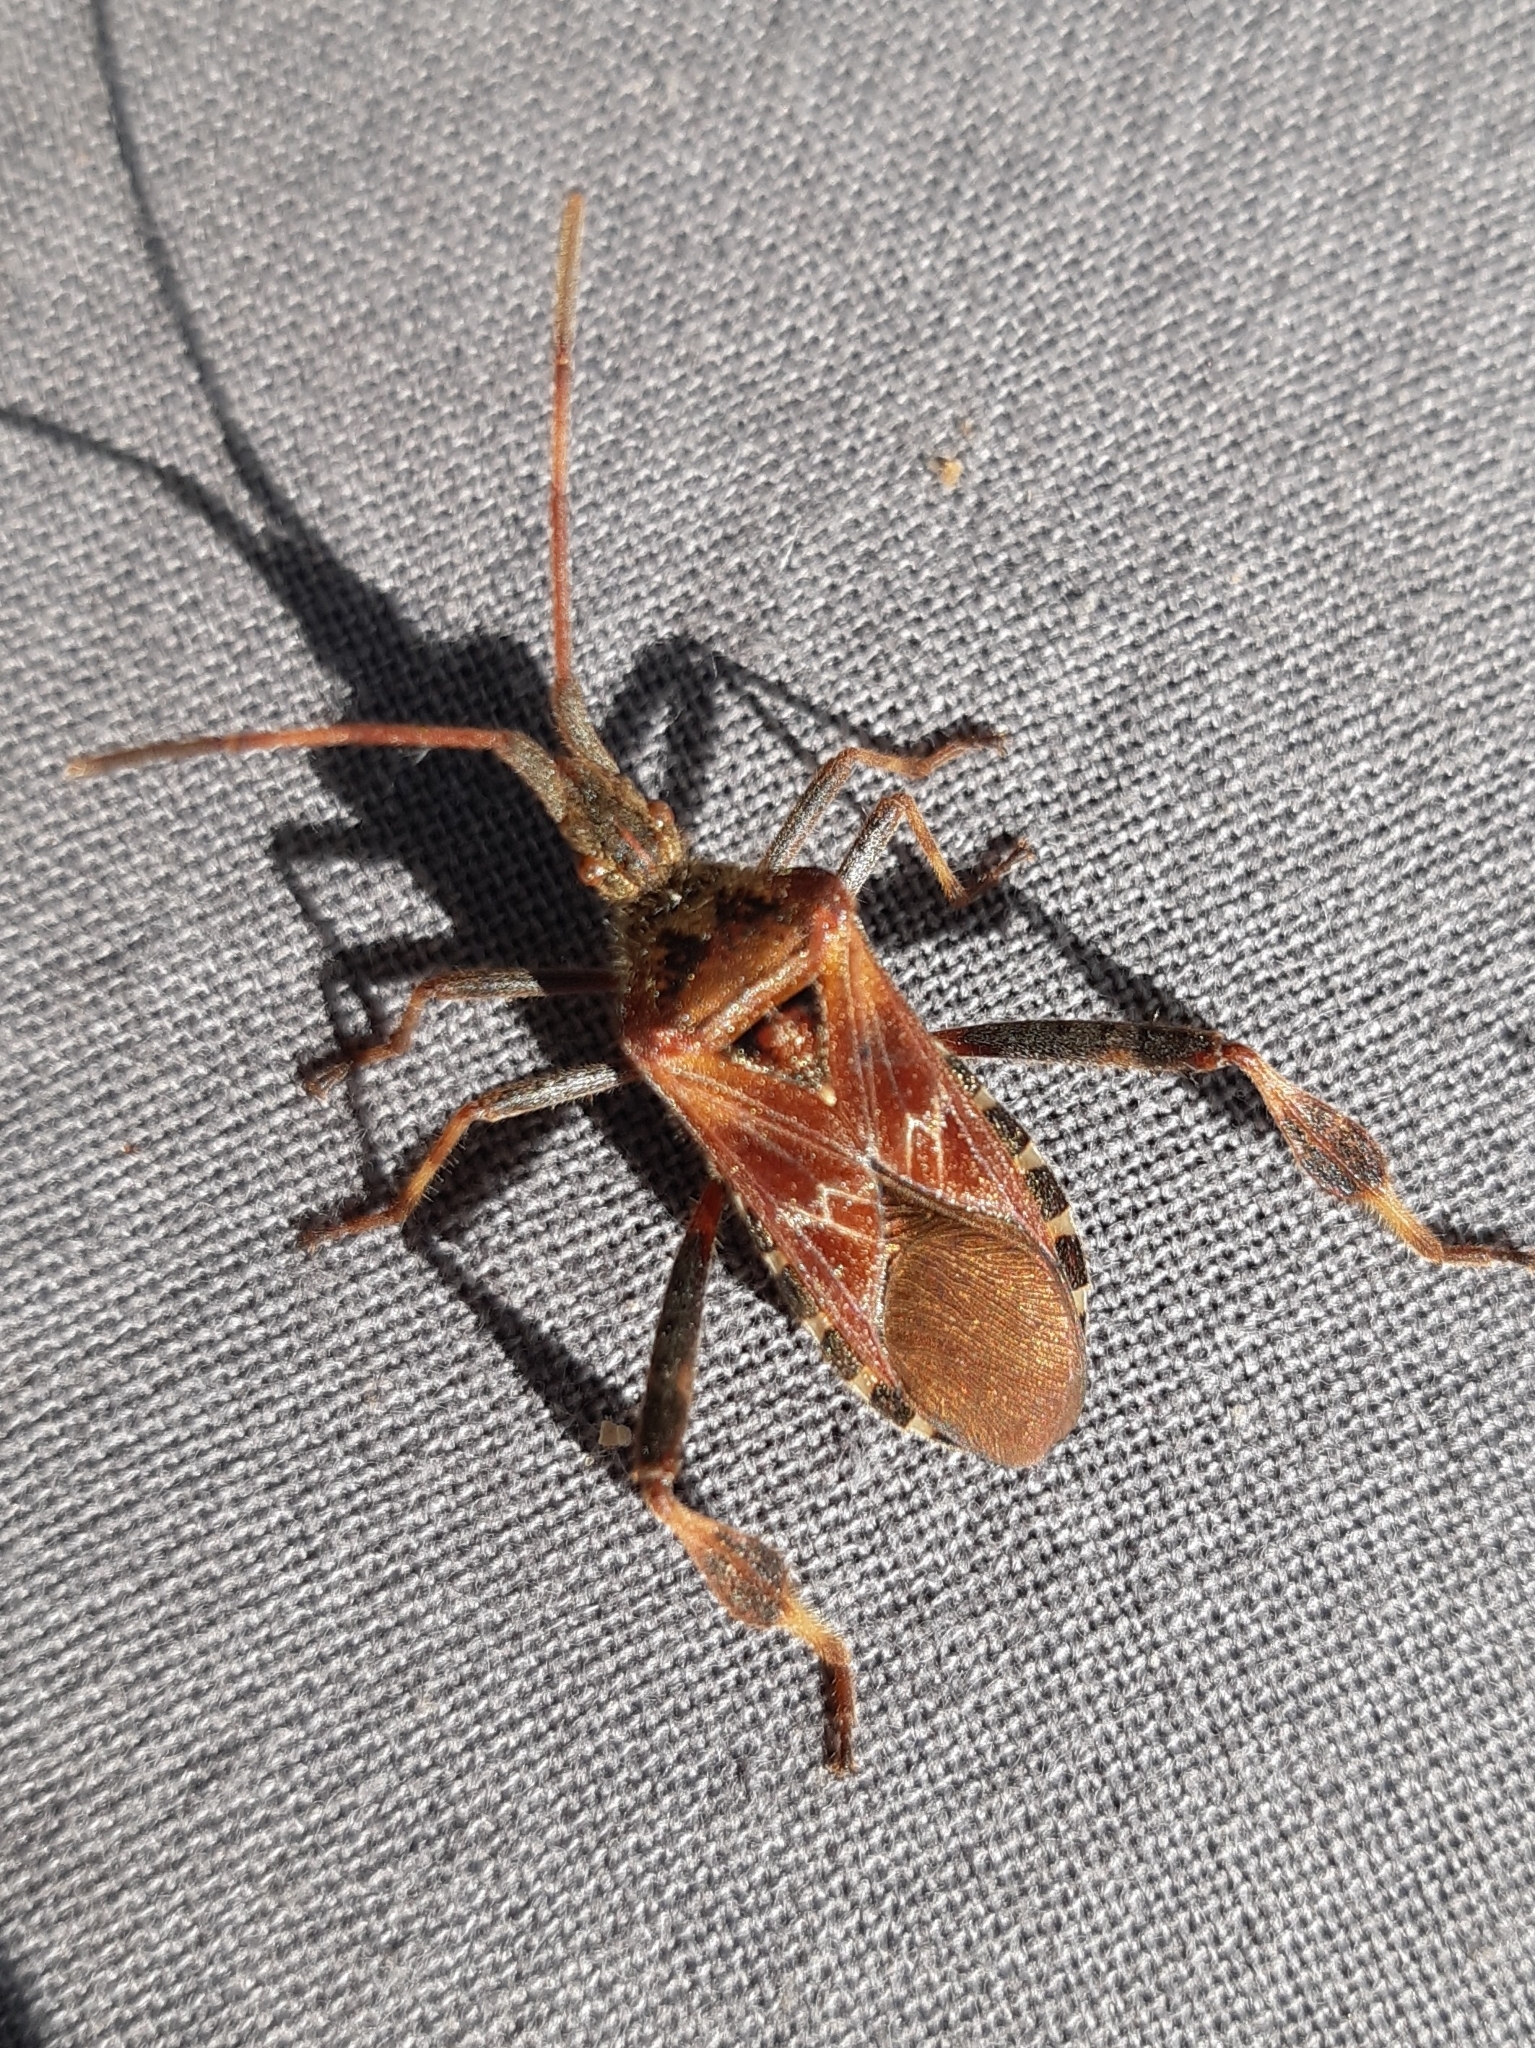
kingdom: Animalia
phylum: Arthropoda
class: Insecta
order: Hemiptera
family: Coreidae
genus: Leptoglossus
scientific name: Leptoglossus occidentalis
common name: Western conifer-seed bug
